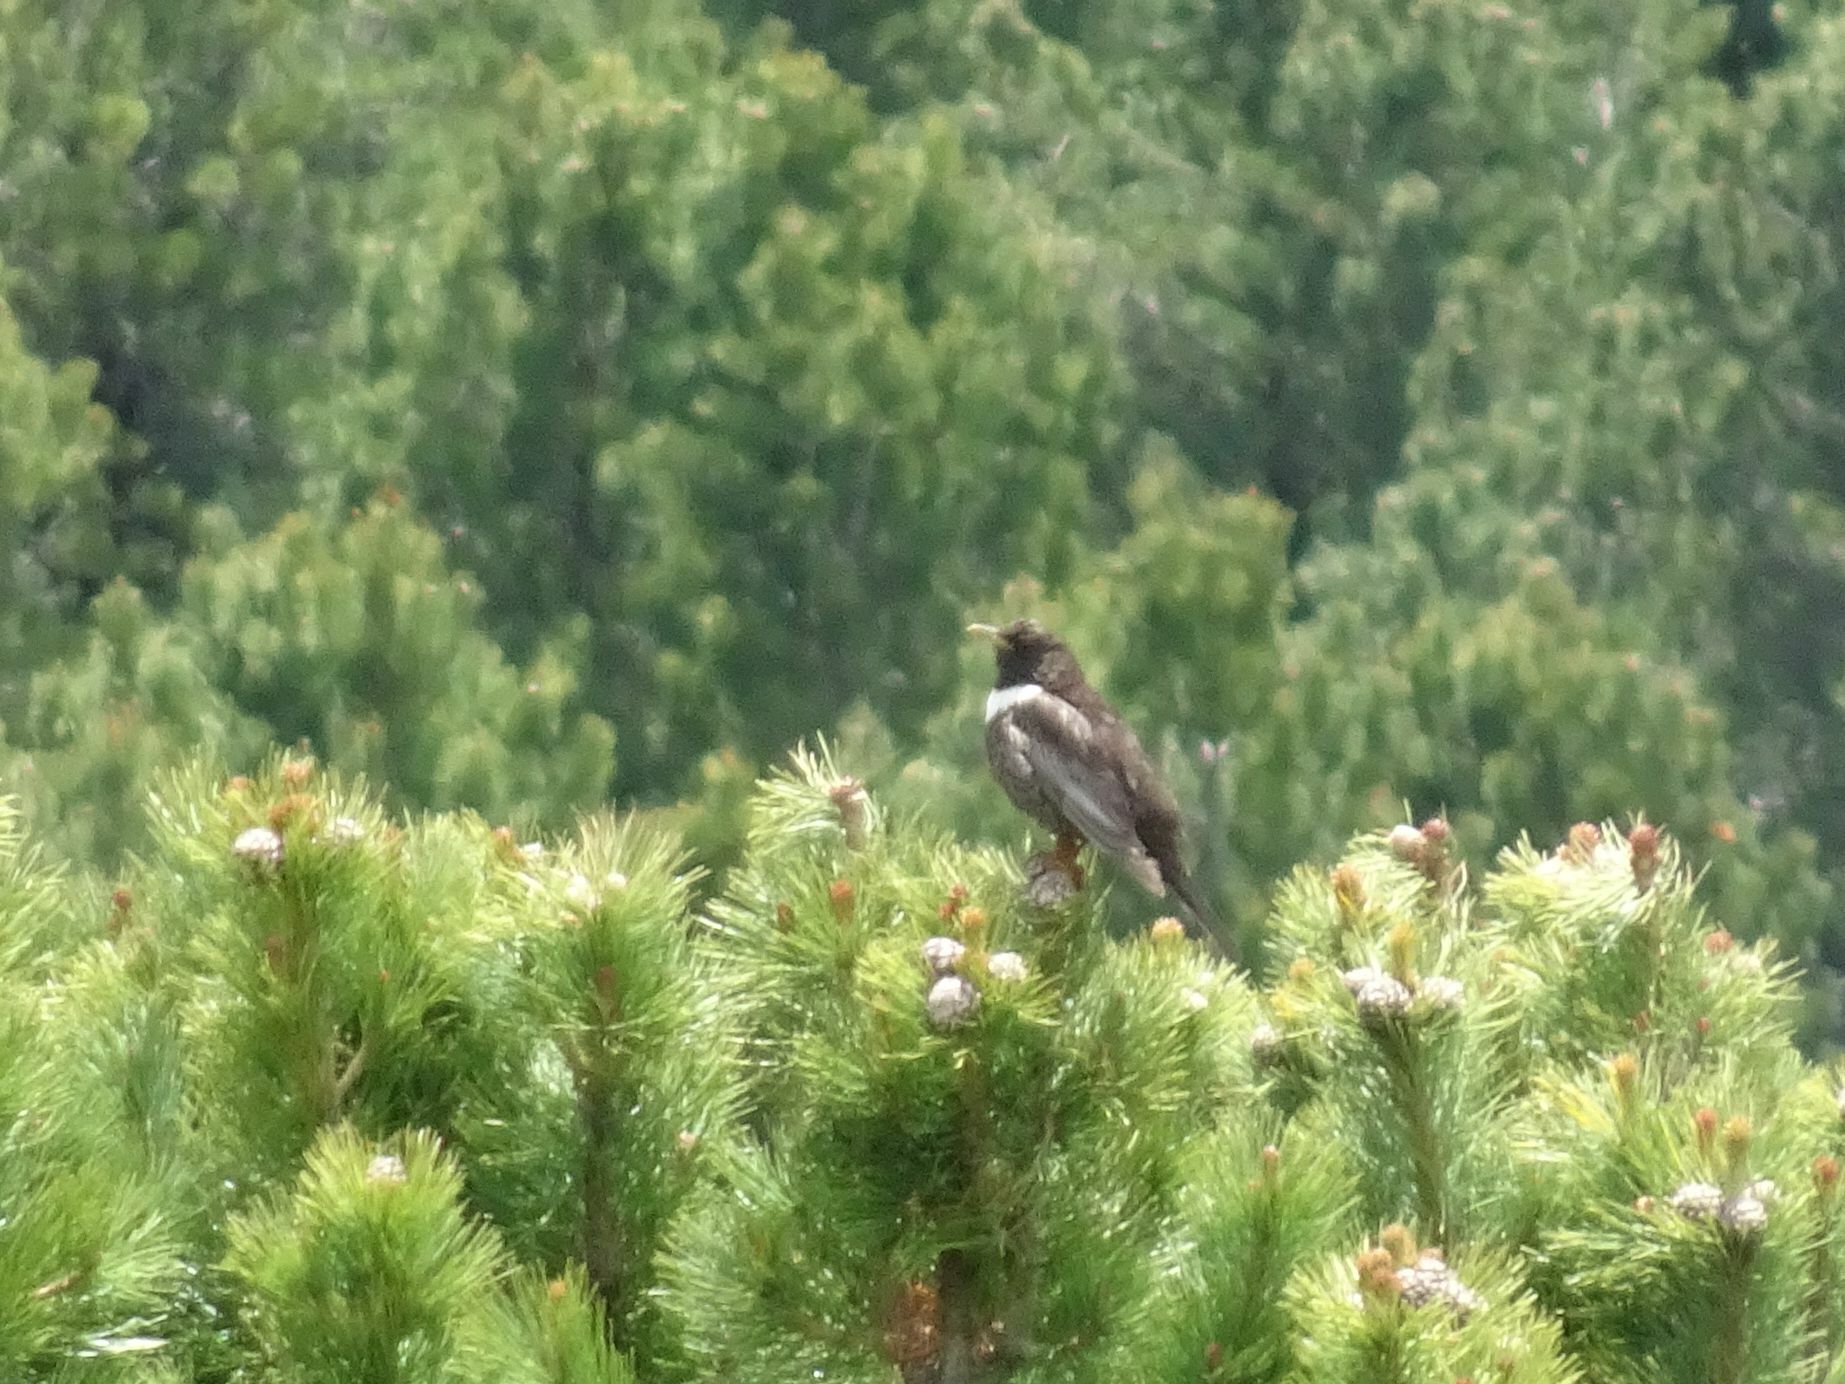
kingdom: Animalia
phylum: Chordata
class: Aves
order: Passeriformes
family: Turdidae
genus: Turdus
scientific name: Turdus torquatus
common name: Ring ouzel
